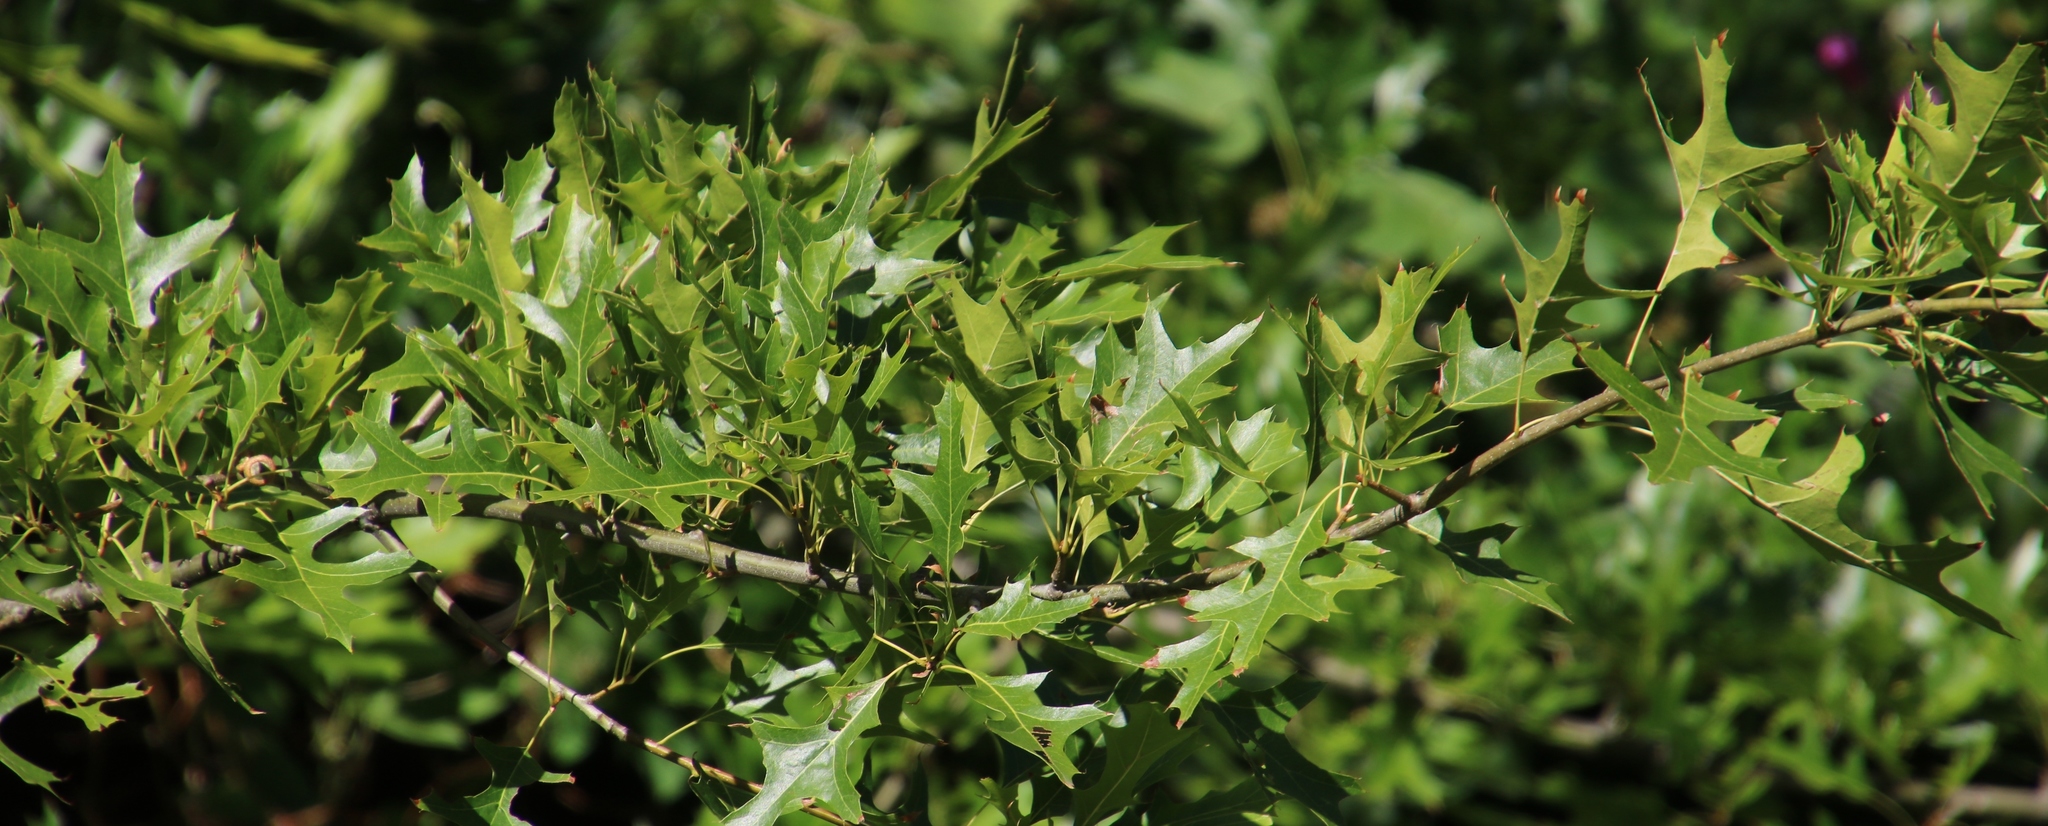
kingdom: Plantae
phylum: Tracheophyta
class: Magnoliopsida
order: Fagales
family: Fagaceae
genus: Quercus
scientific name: Quercus palustris
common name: Pin oak
